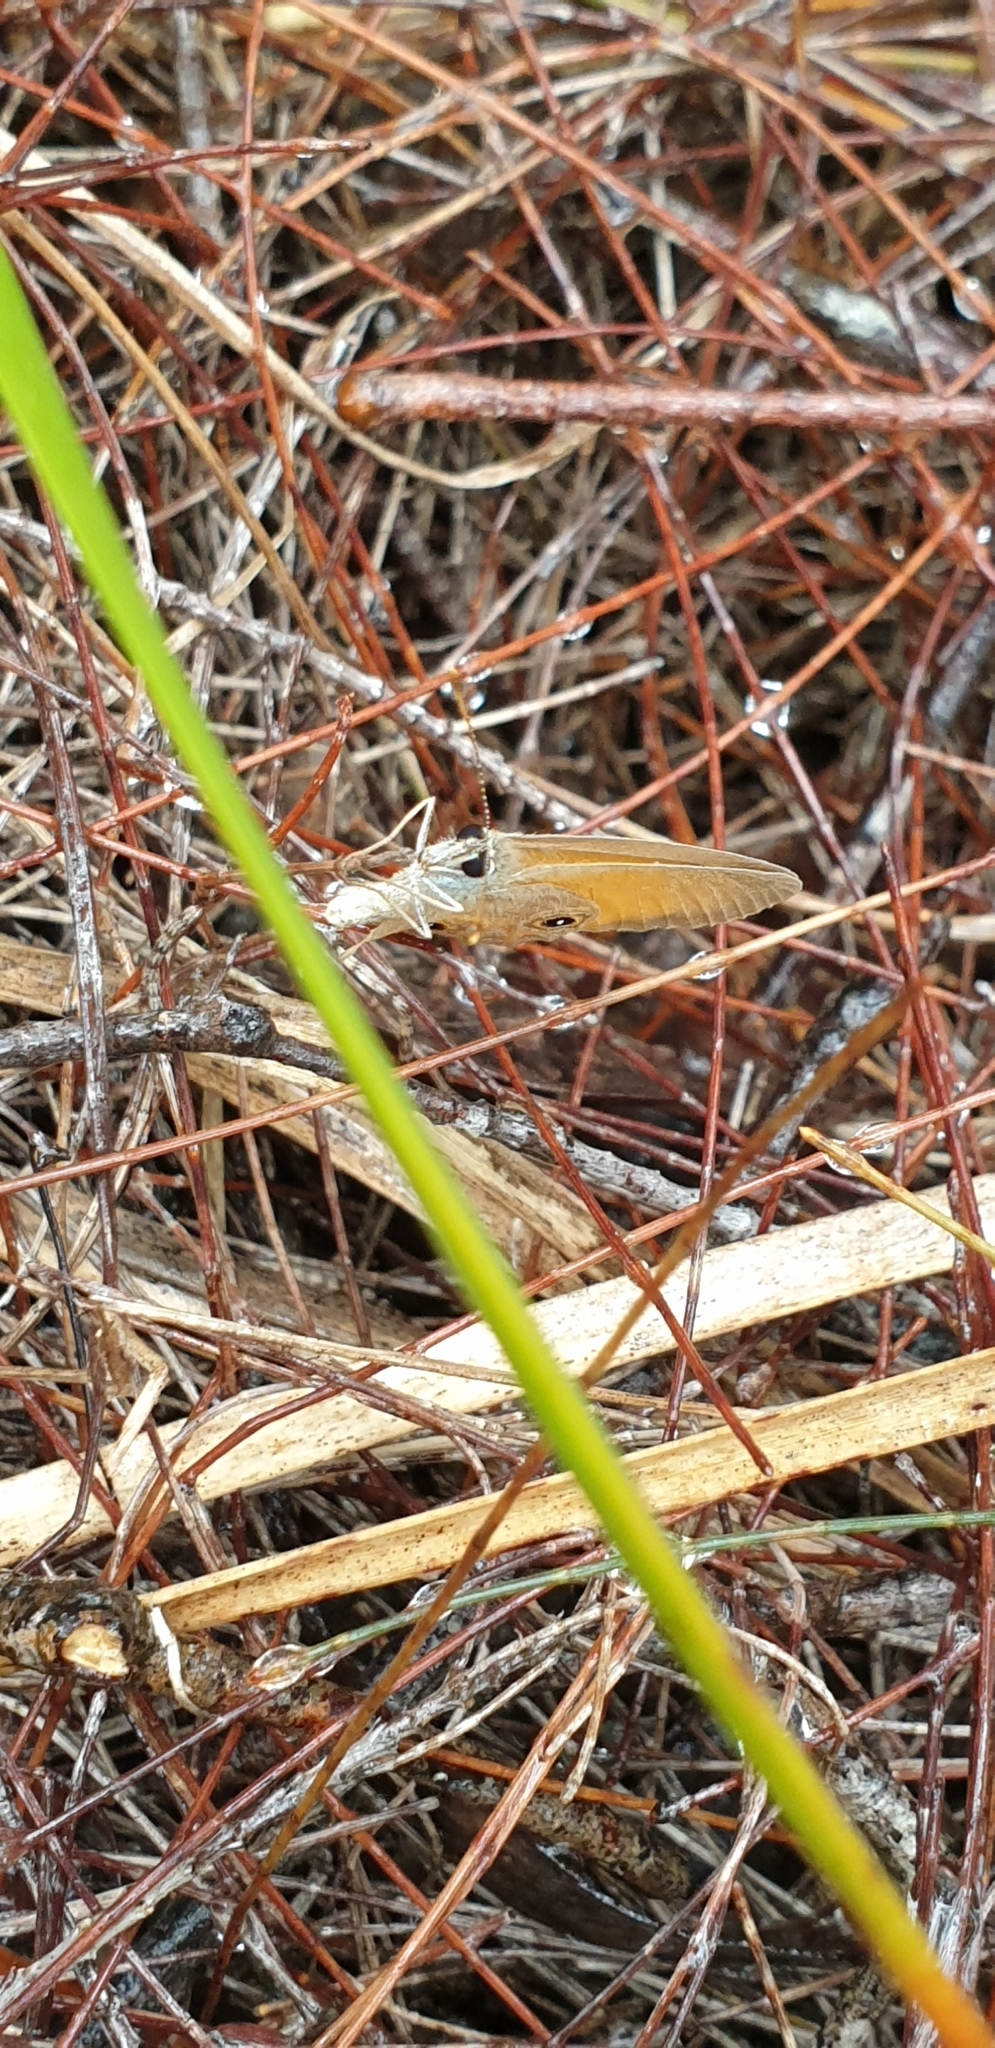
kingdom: Animalia
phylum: Arthropoda
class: Insecta
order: Lepidoptera
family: Nymphalidae
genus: Hypocysta
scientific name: Hypocysta adiante
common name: Orange ringlet
